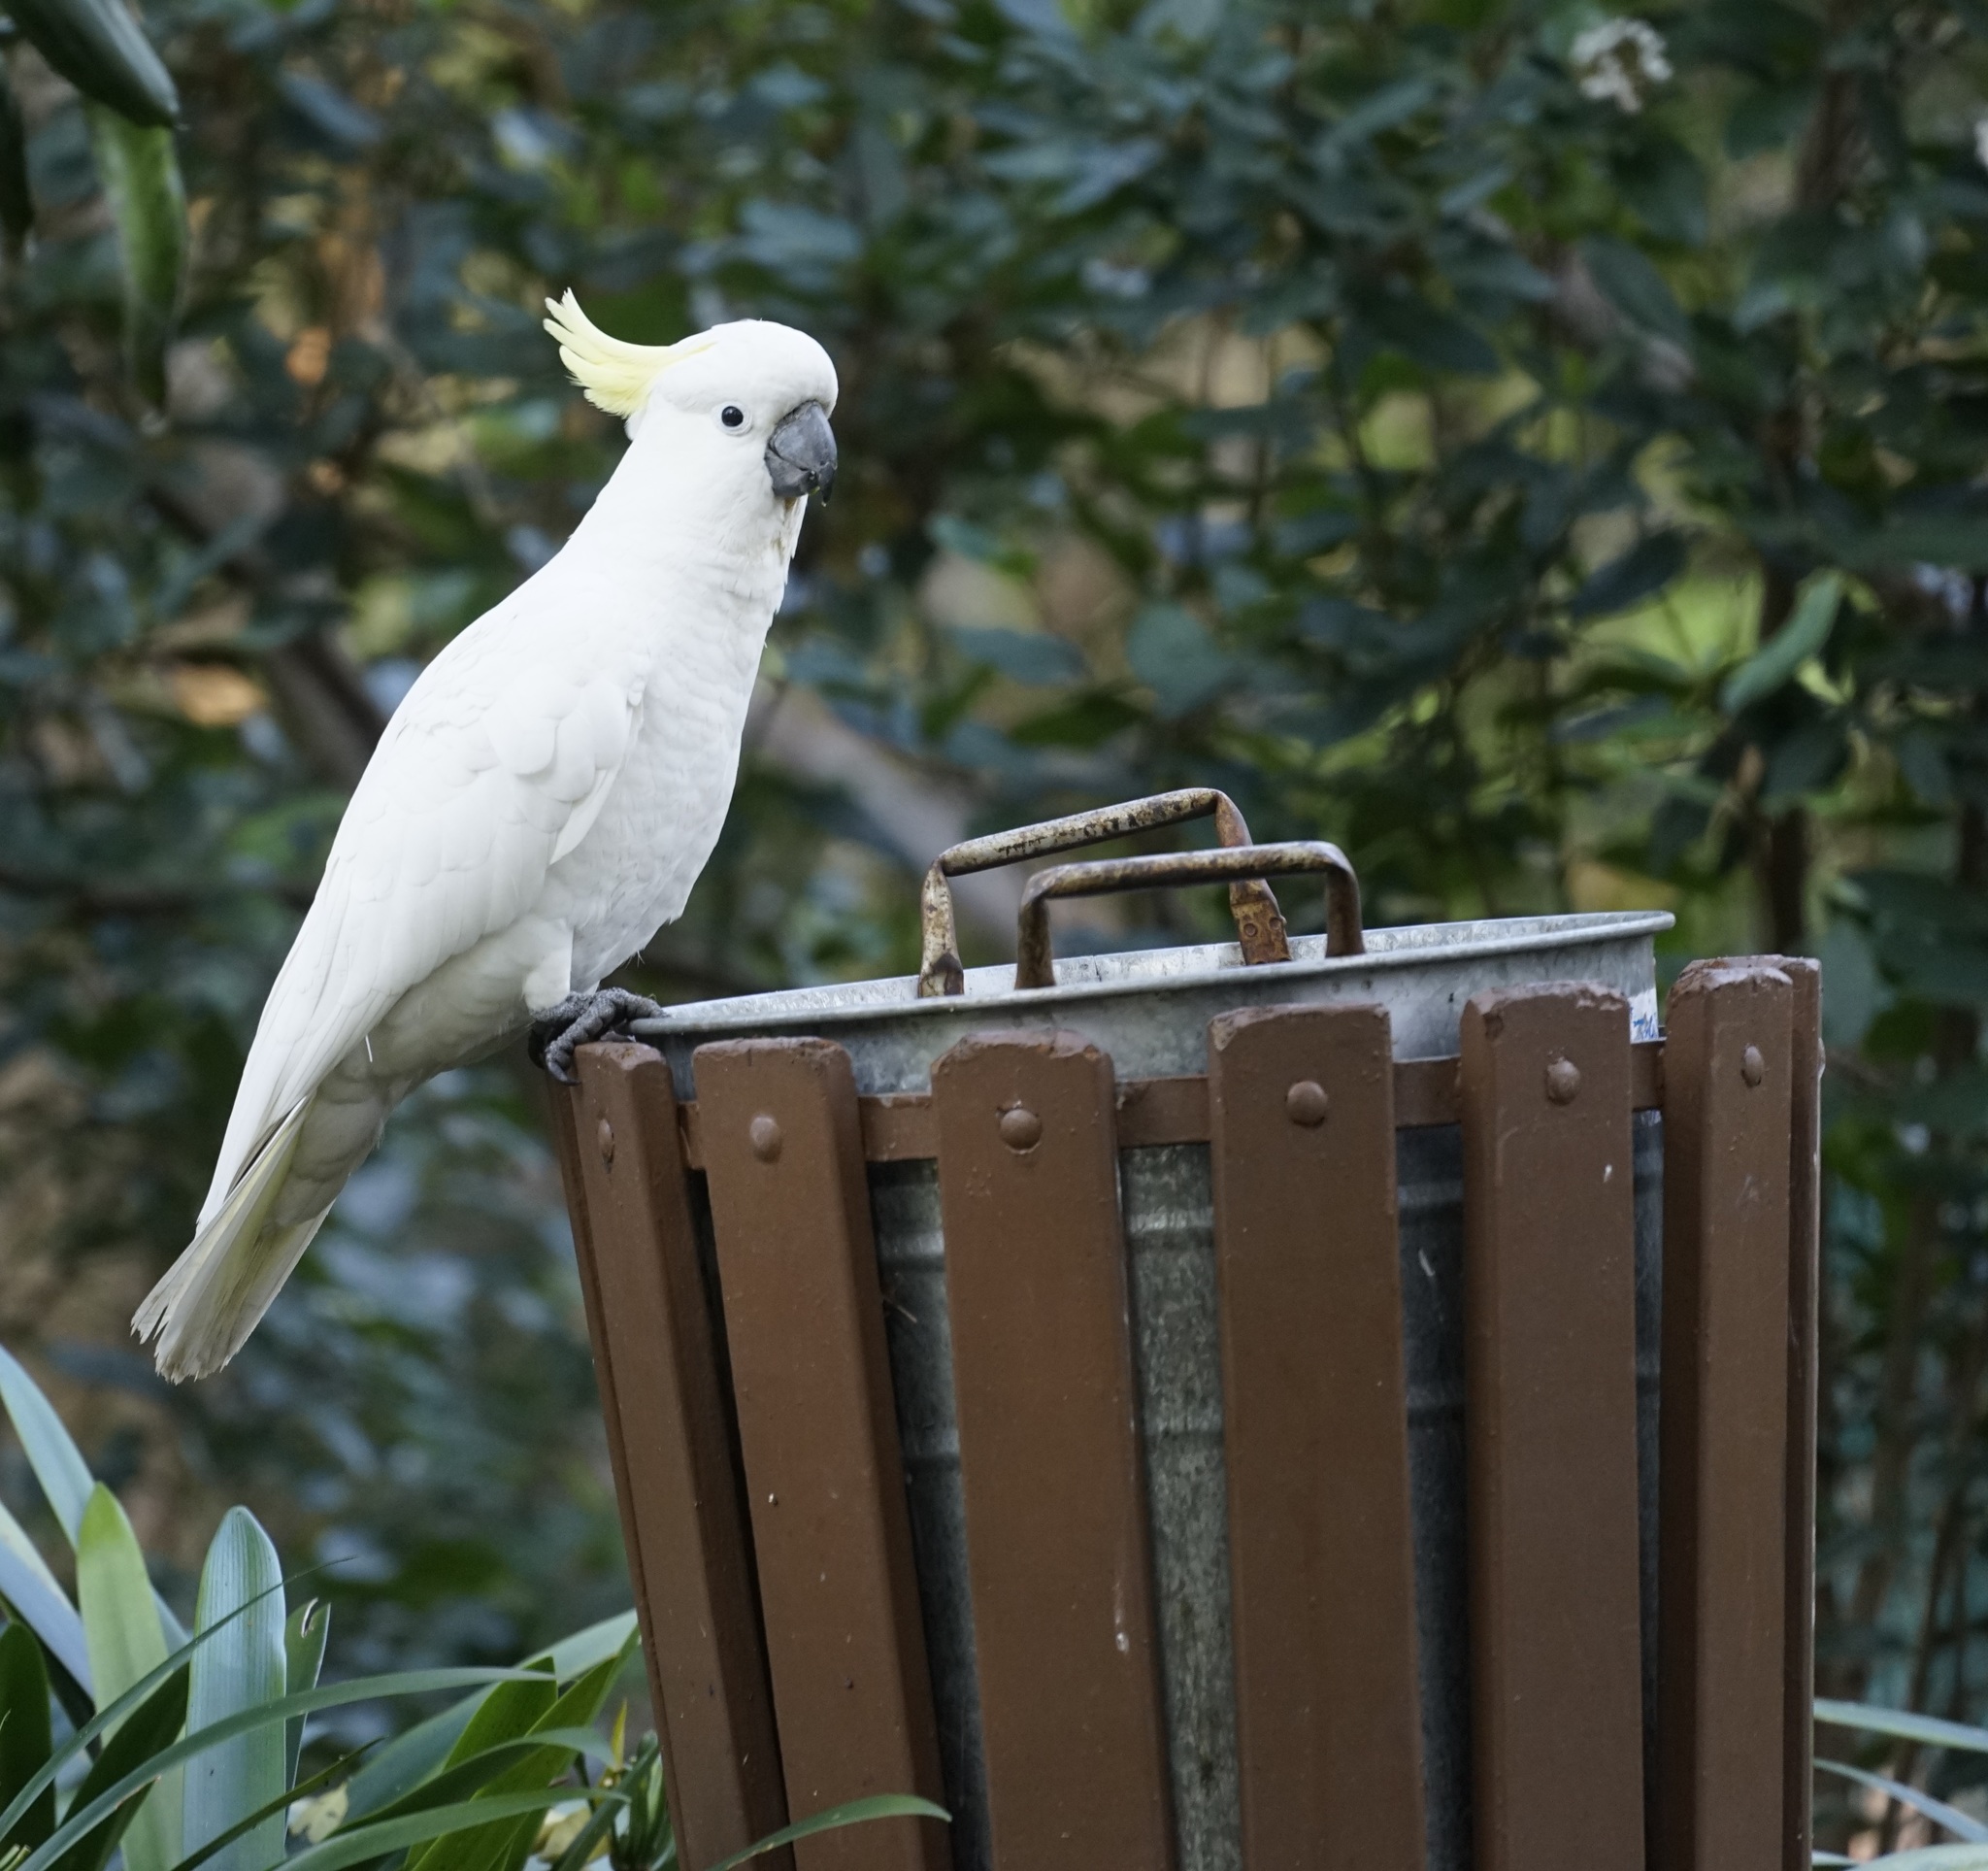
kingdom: Animalia
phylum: Chordata
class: Aves
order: Psittaciformes
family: Psittacidae
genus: Cacatua
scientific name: Cacatua galerita
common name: Sulphur-crested cockatoo
